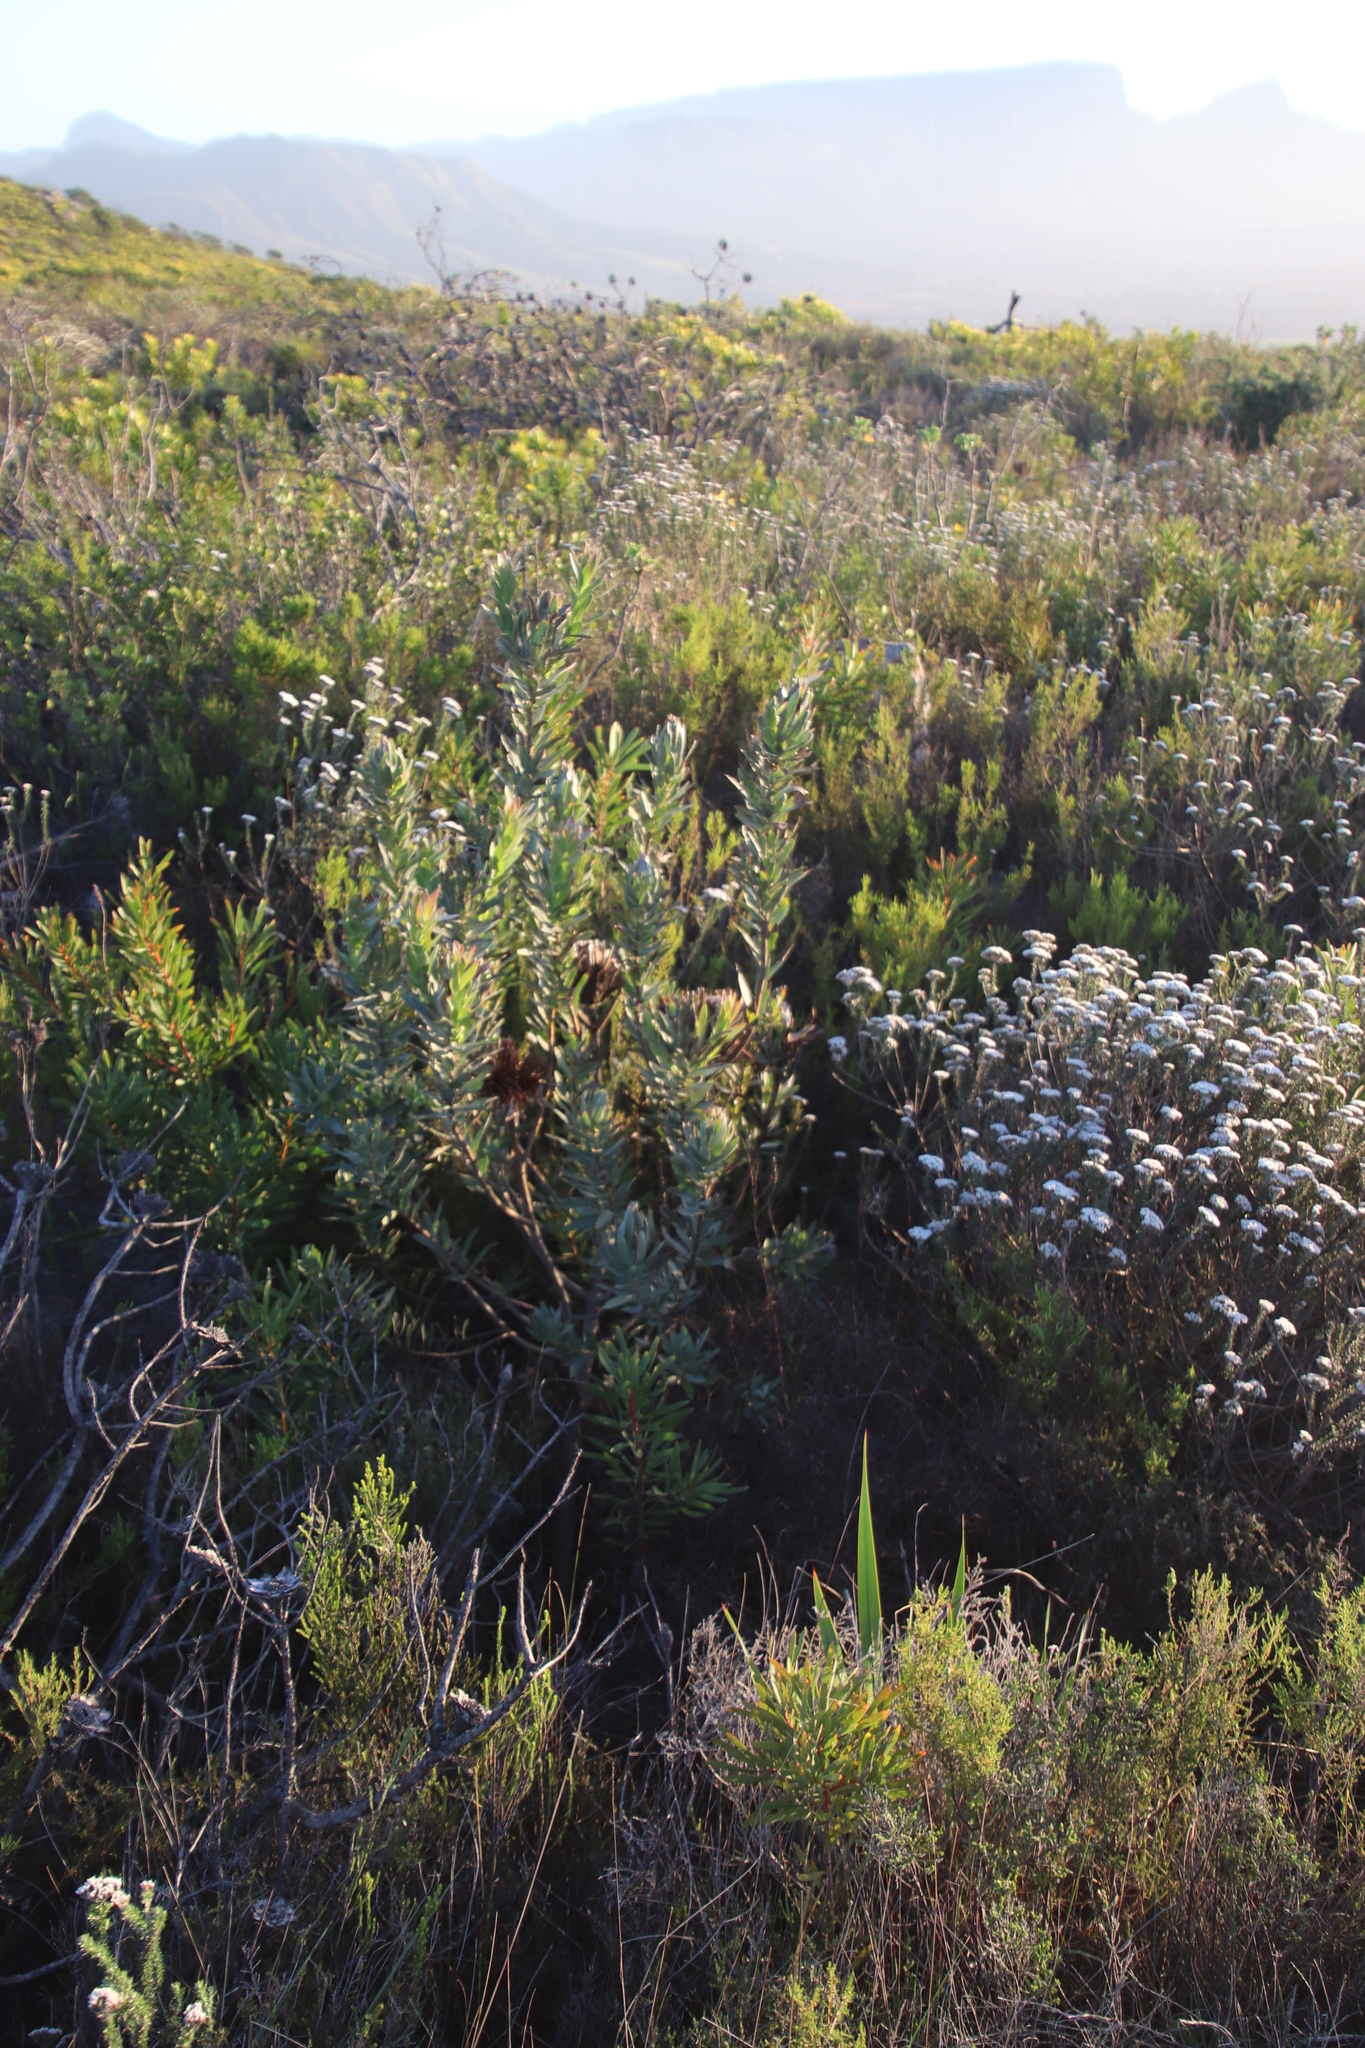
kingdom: Plantae
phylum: Tracheophyta
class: Magnoliopsida
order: Proteales
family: Proteaceae
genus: Protea
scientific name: Protea coronata
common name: Green sugarbush
